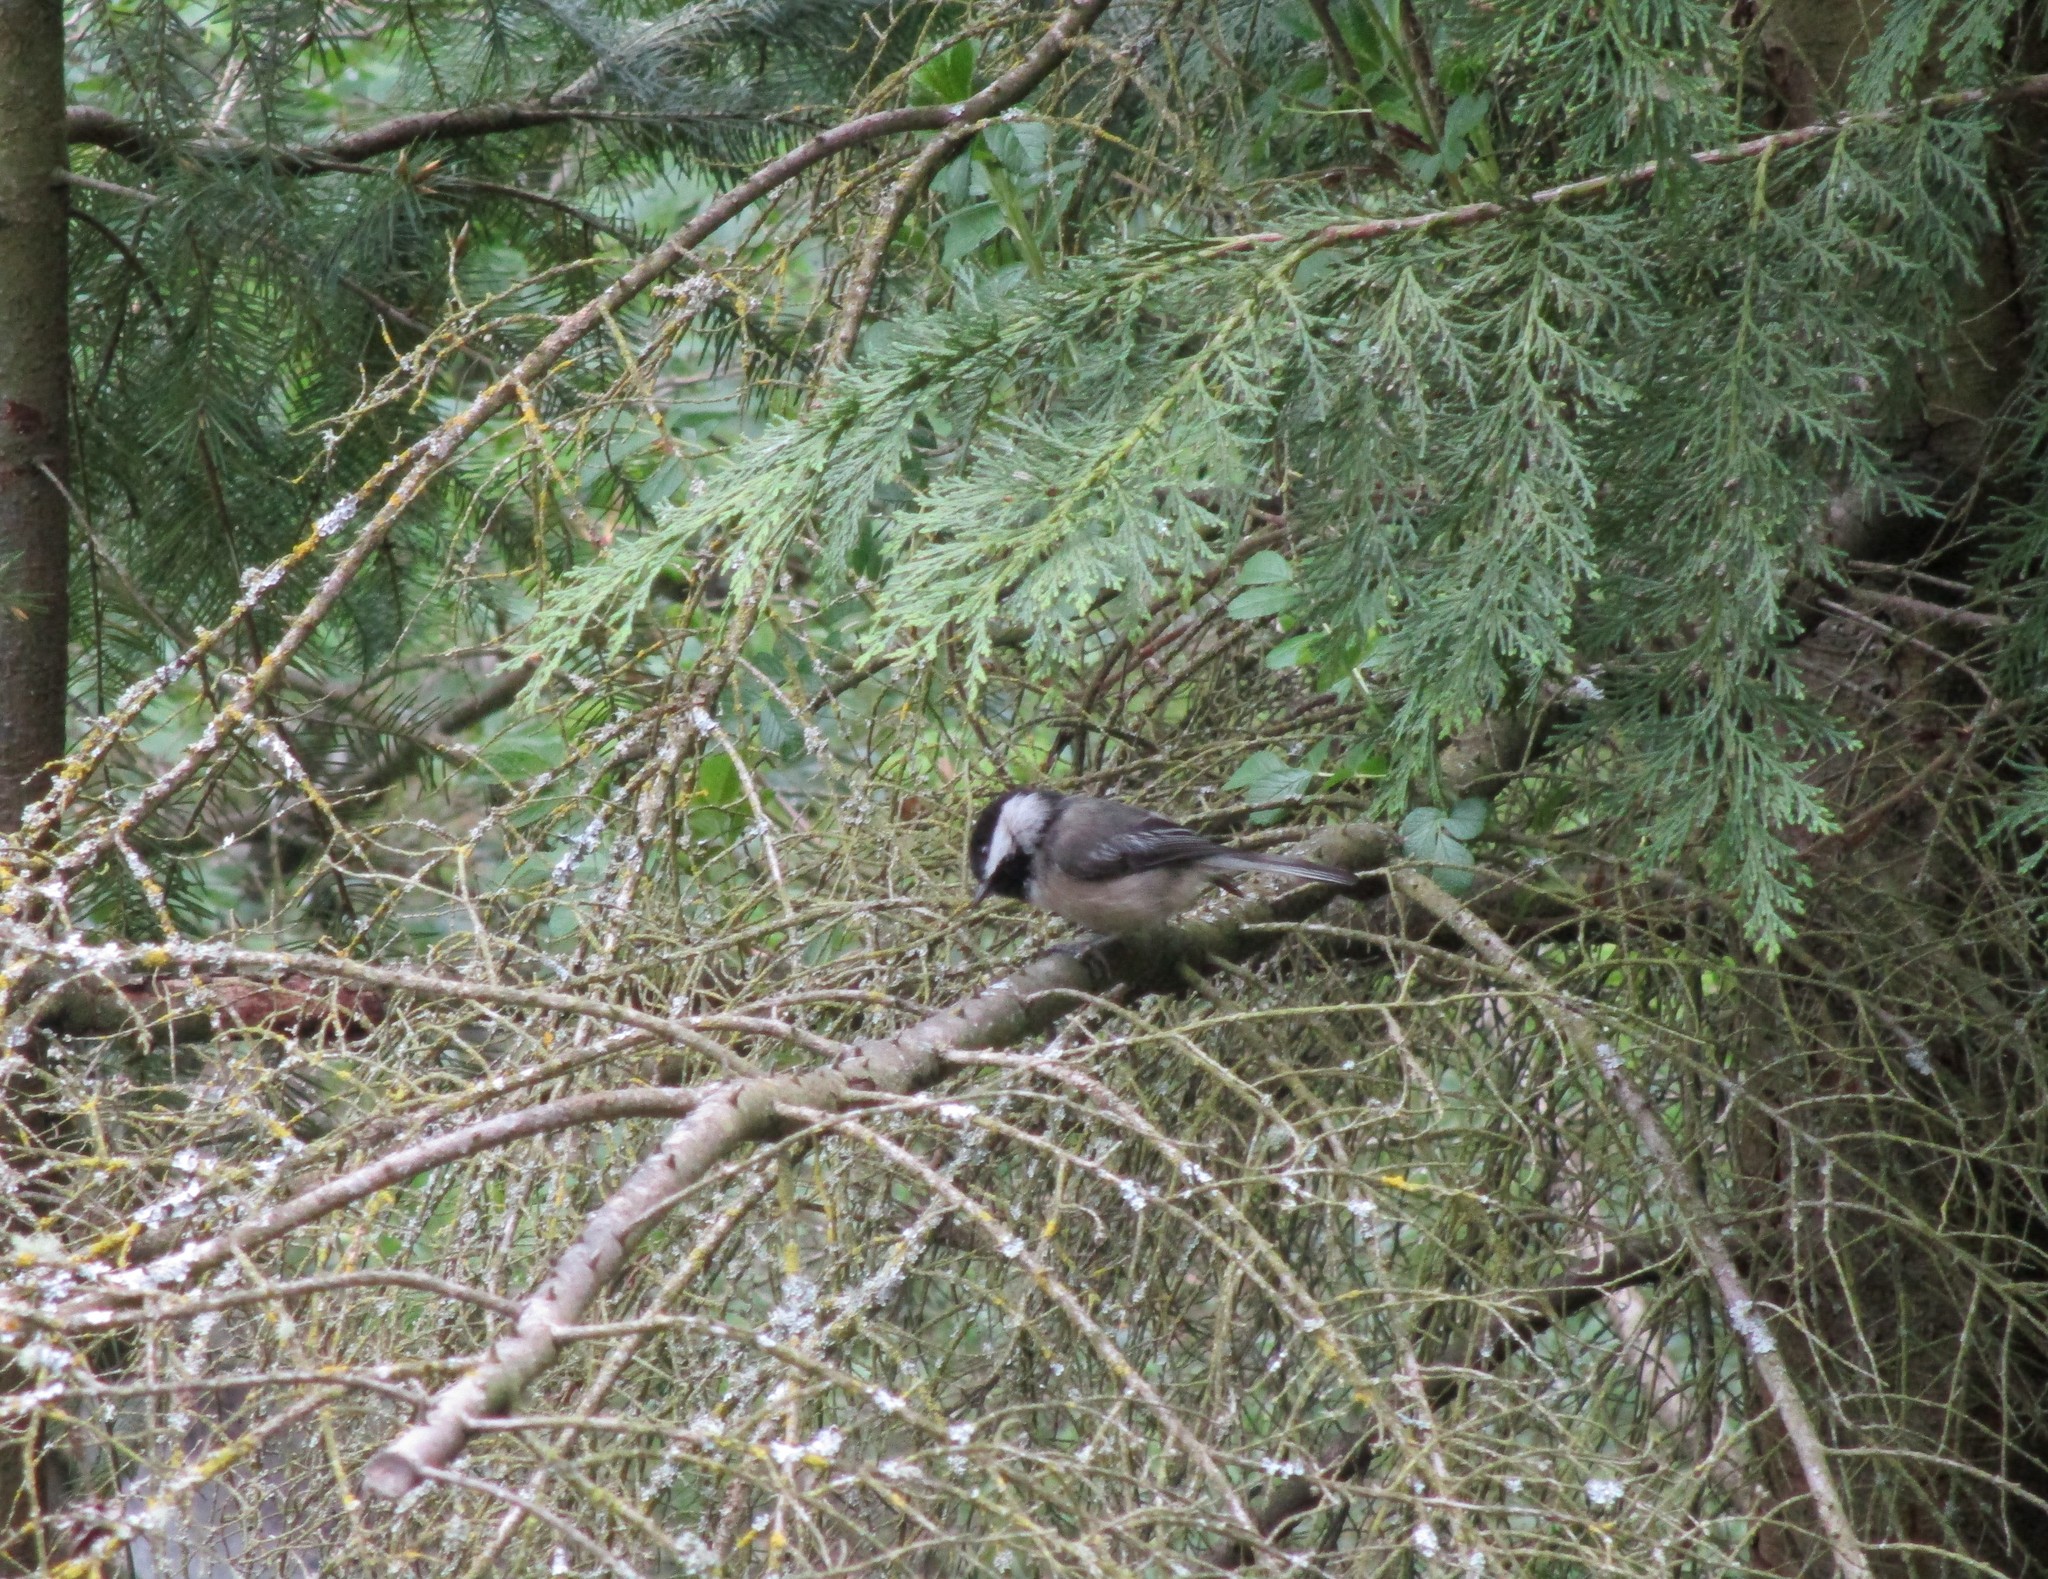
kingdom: Animalia
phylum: Chordata
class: Aves
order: Passeriformes
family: Paridae
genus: Poecile
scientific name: Poecile atricapillus
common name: Black-capped chickadee
